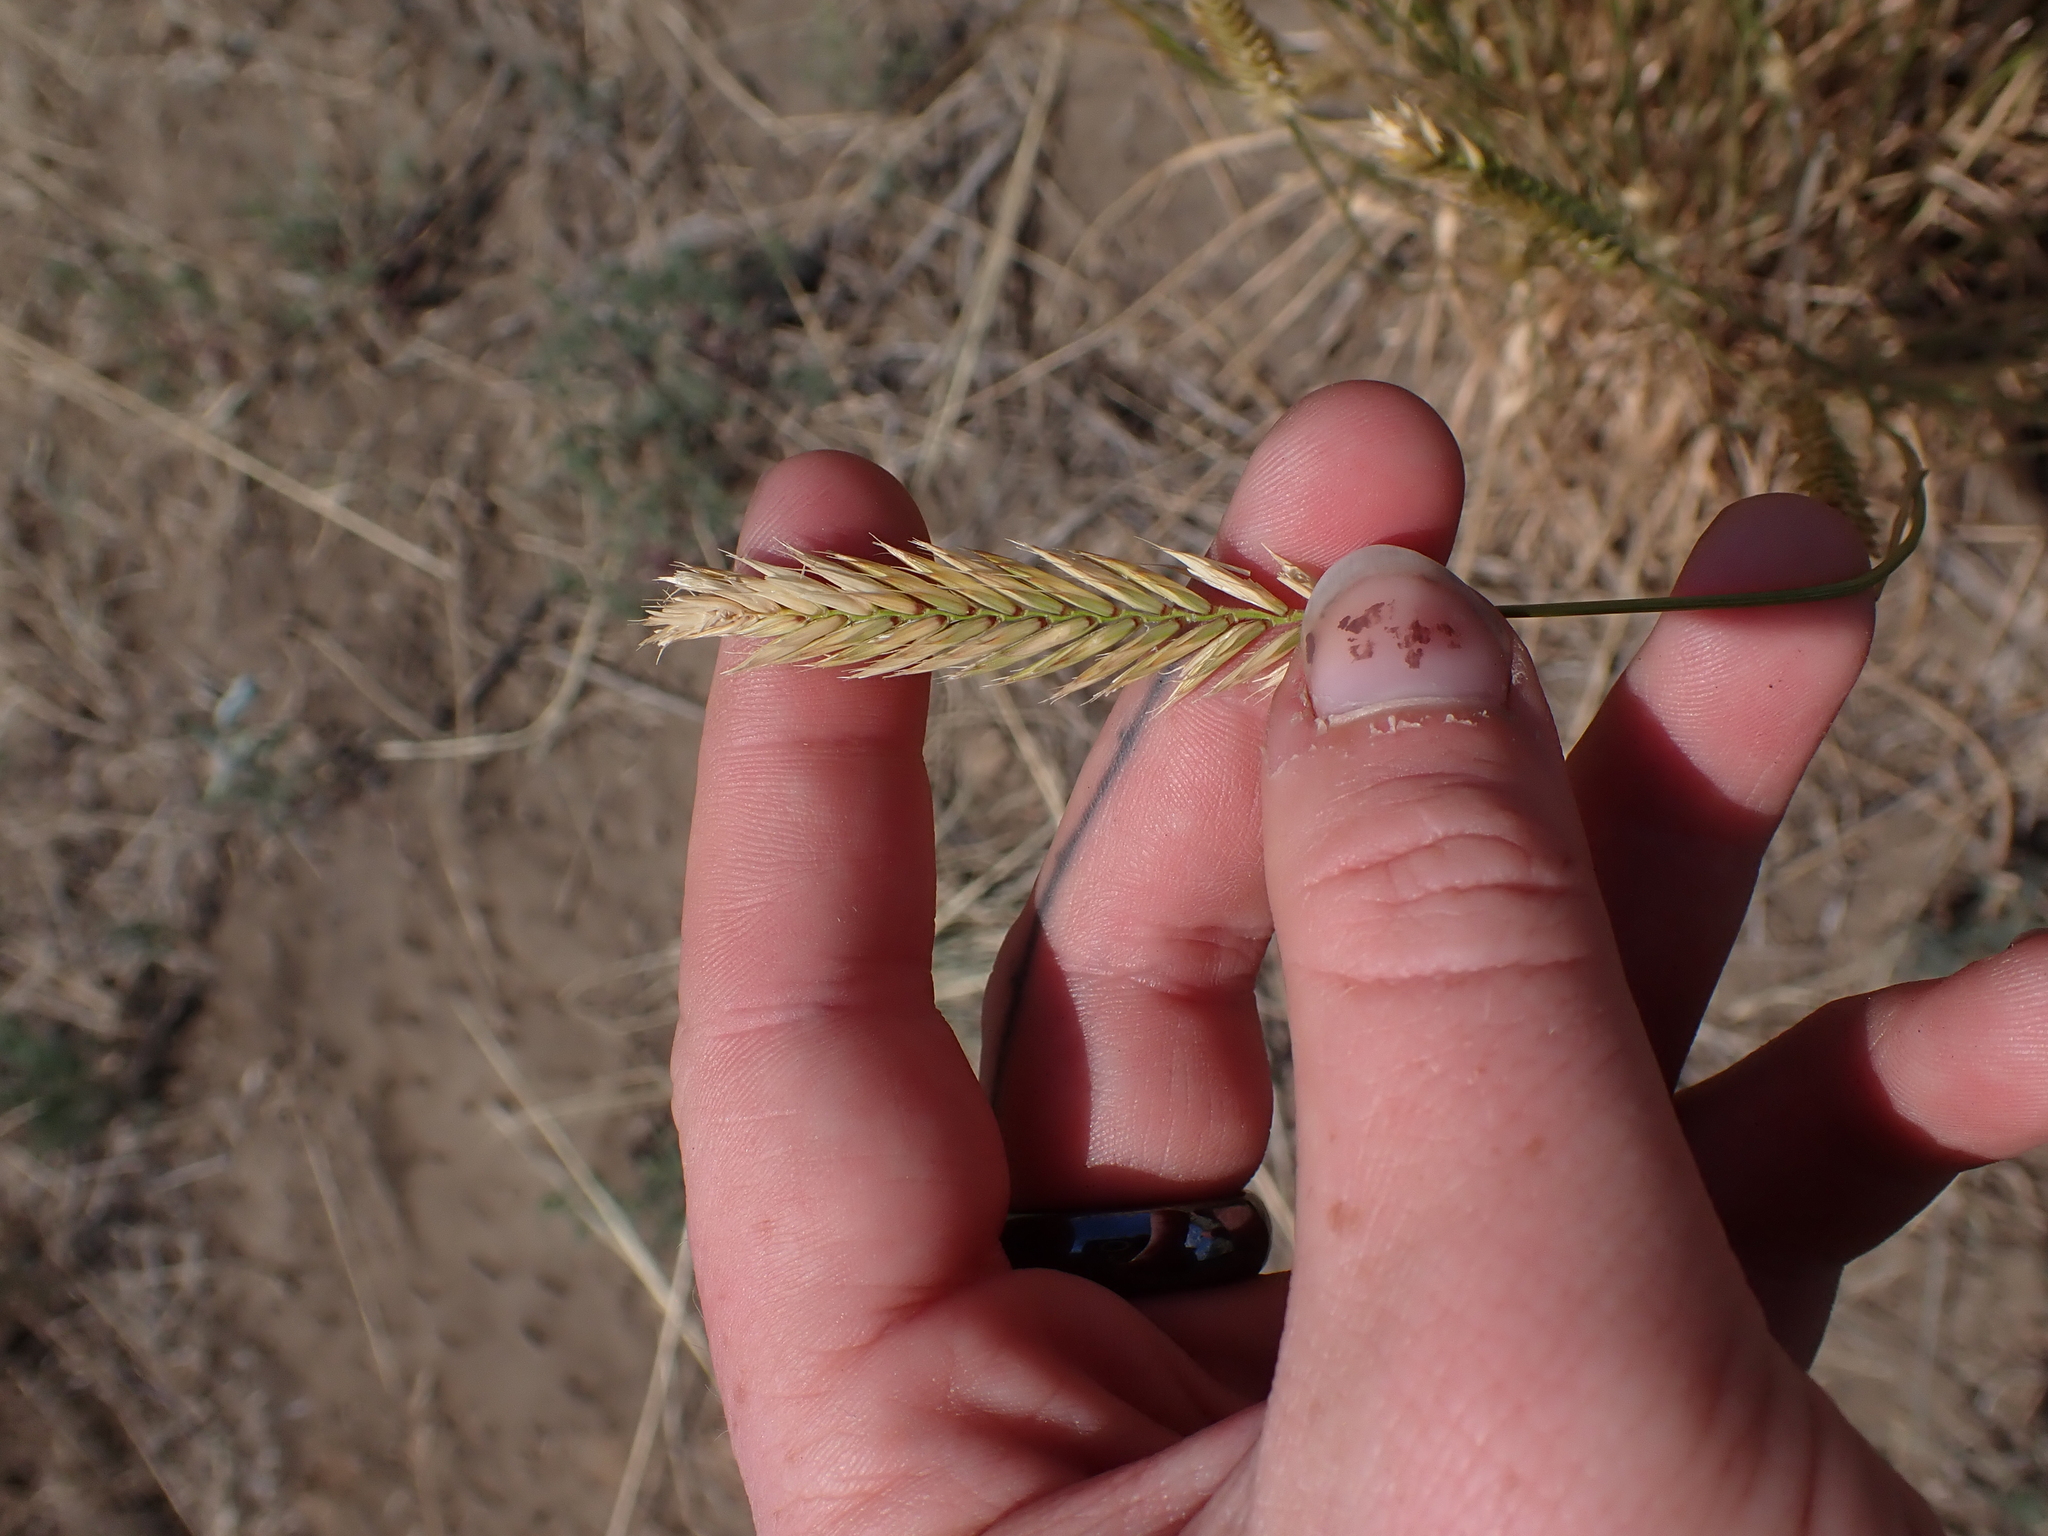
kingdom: Plantae
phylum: Tracheophyta
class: Liliopsida
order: Poales
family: Poaceae
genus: Agropyron
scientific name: Agropyron cristatum
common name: Crested wheatgrass
